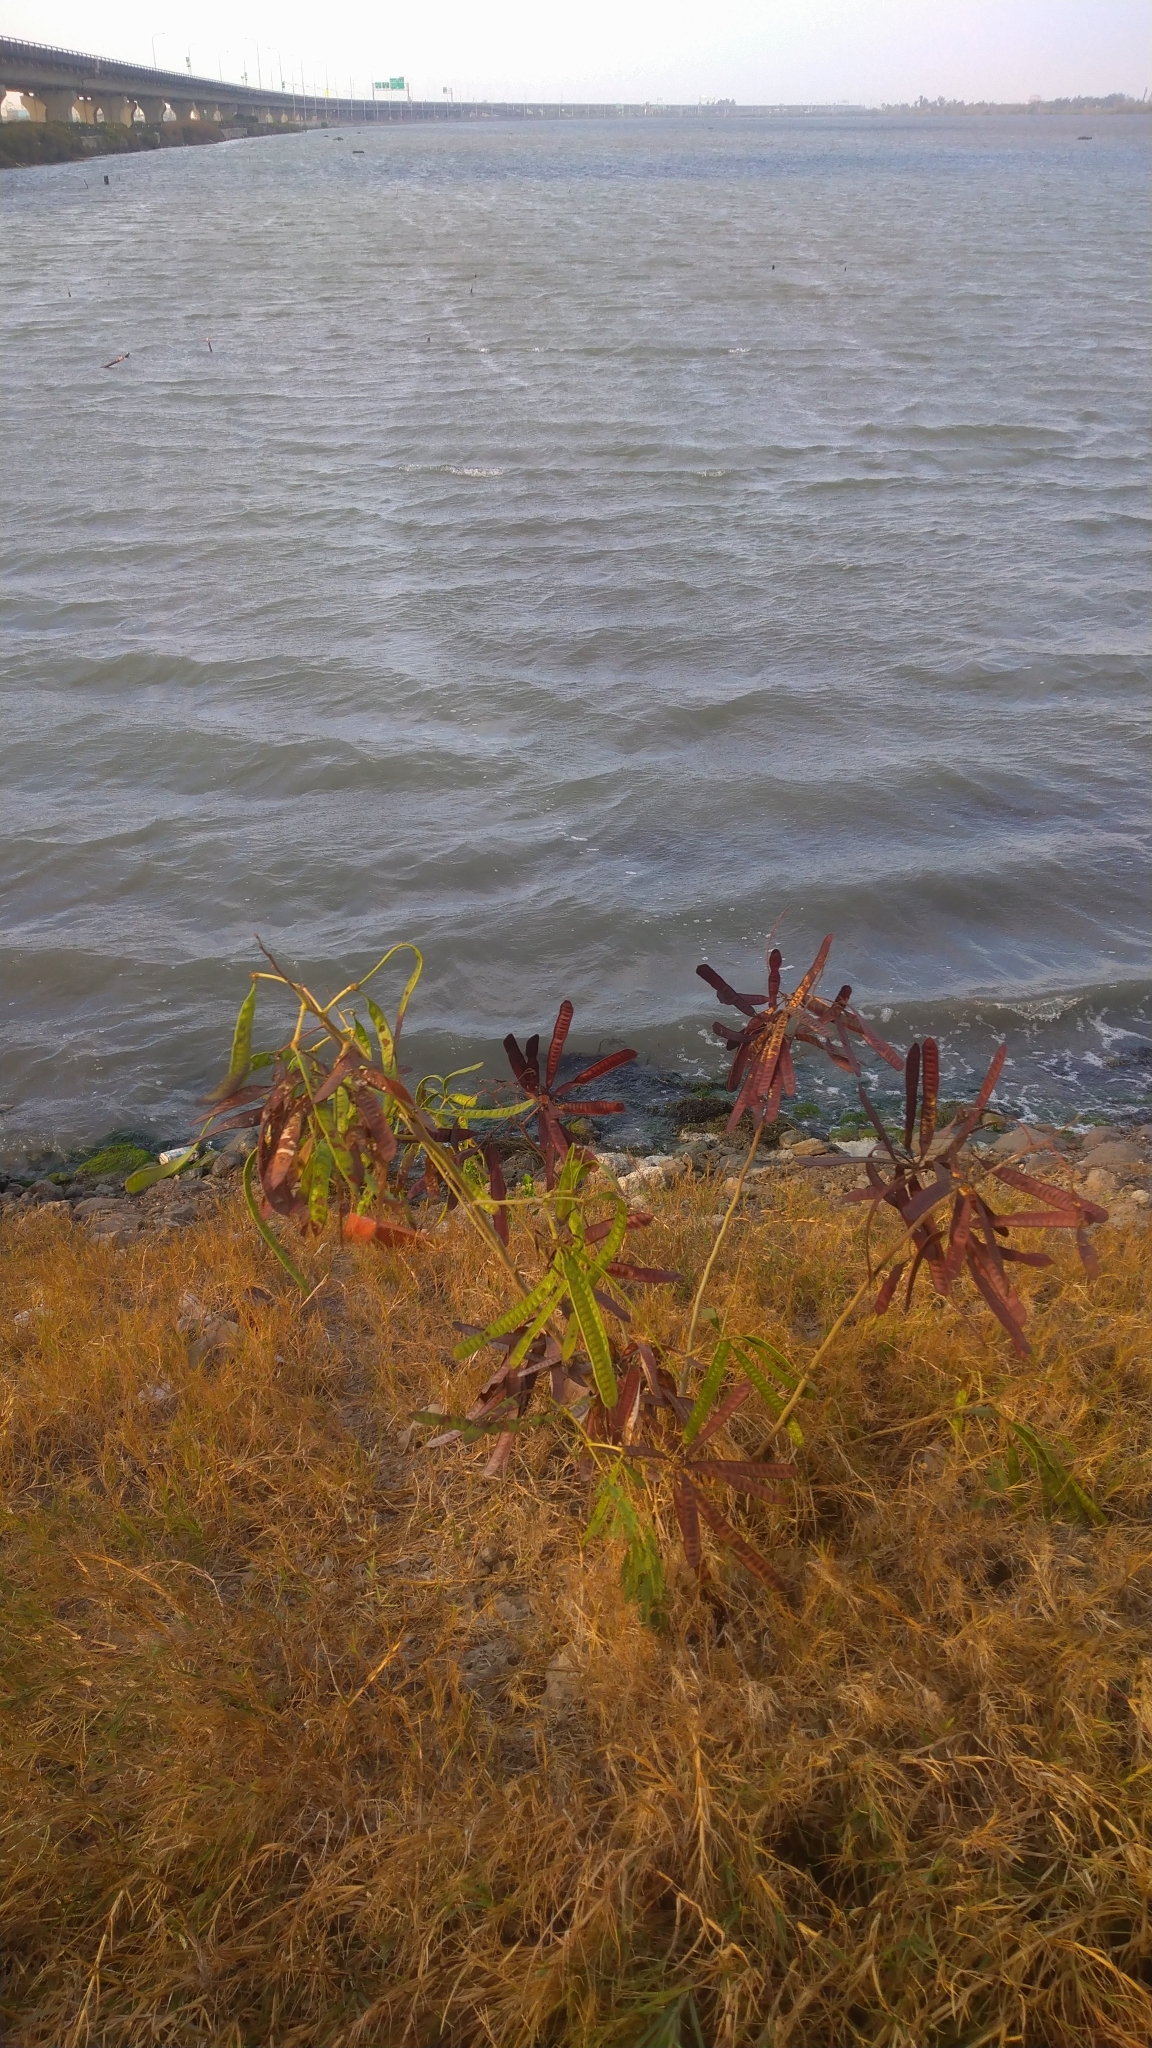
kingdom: Plantae
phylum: Tracheophyta
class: Magnoliopsida
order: Fabales
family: Fabaceae
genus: Leucaena
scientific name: Leucaena leucocephala
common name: White leadtree
